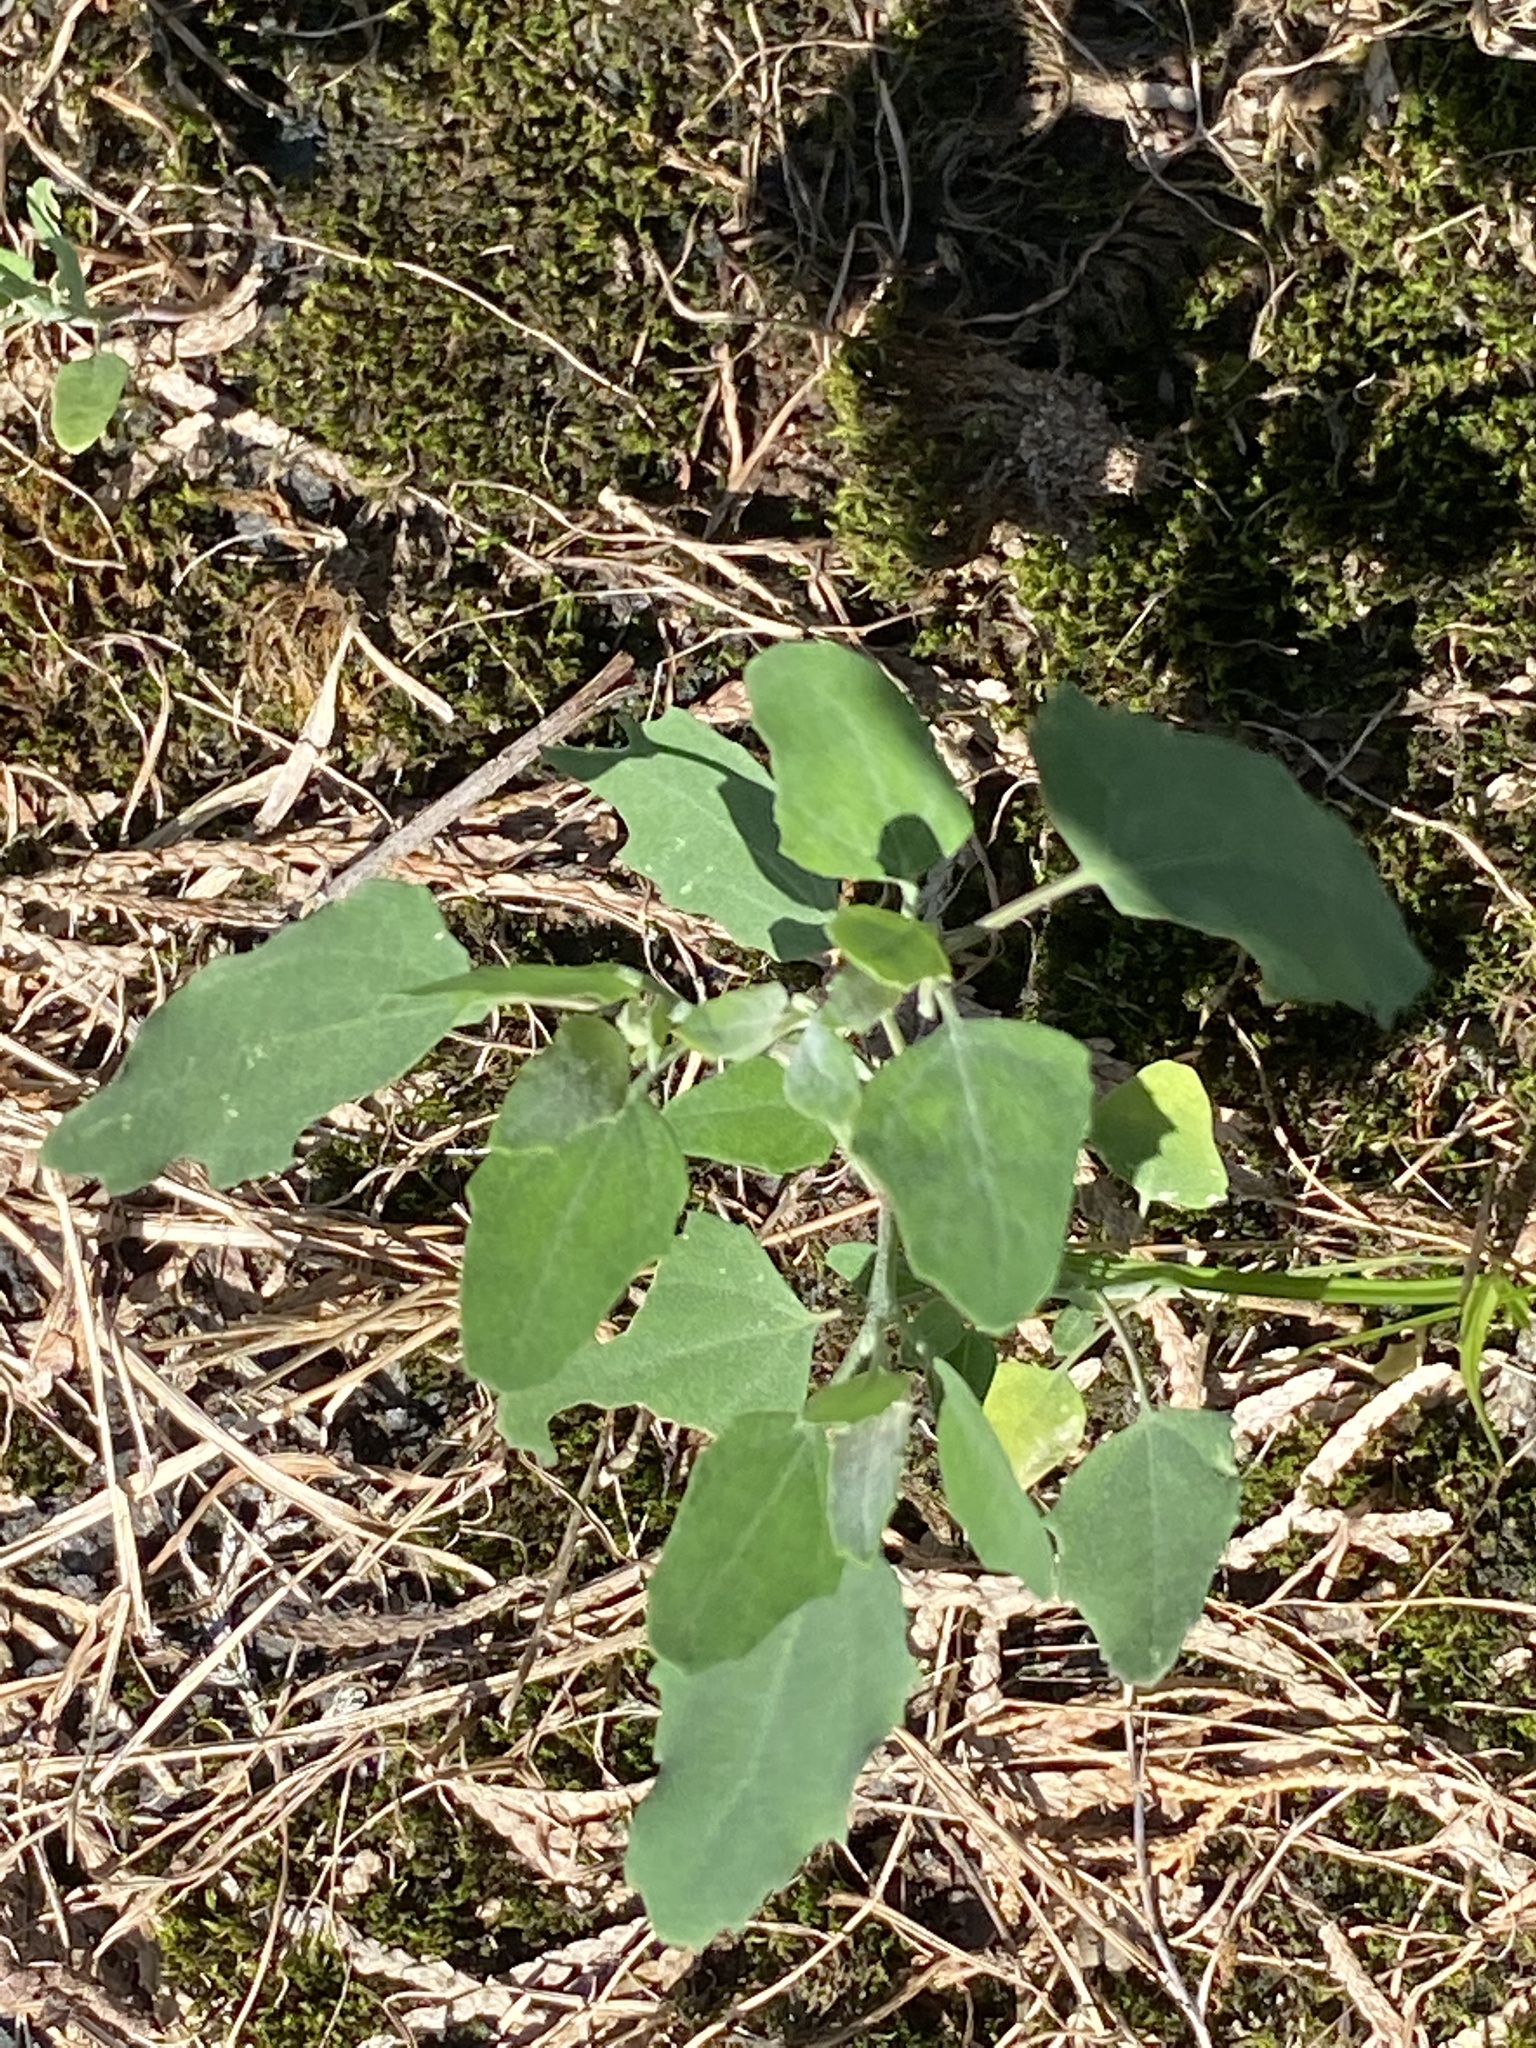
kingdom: Plantae
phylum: Tracheophyta
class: Magnoliopsida
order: Caryophyllales
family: Amaranthaceae
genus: Chenopodium
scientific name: Chenopodium album
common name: Fat-hen
